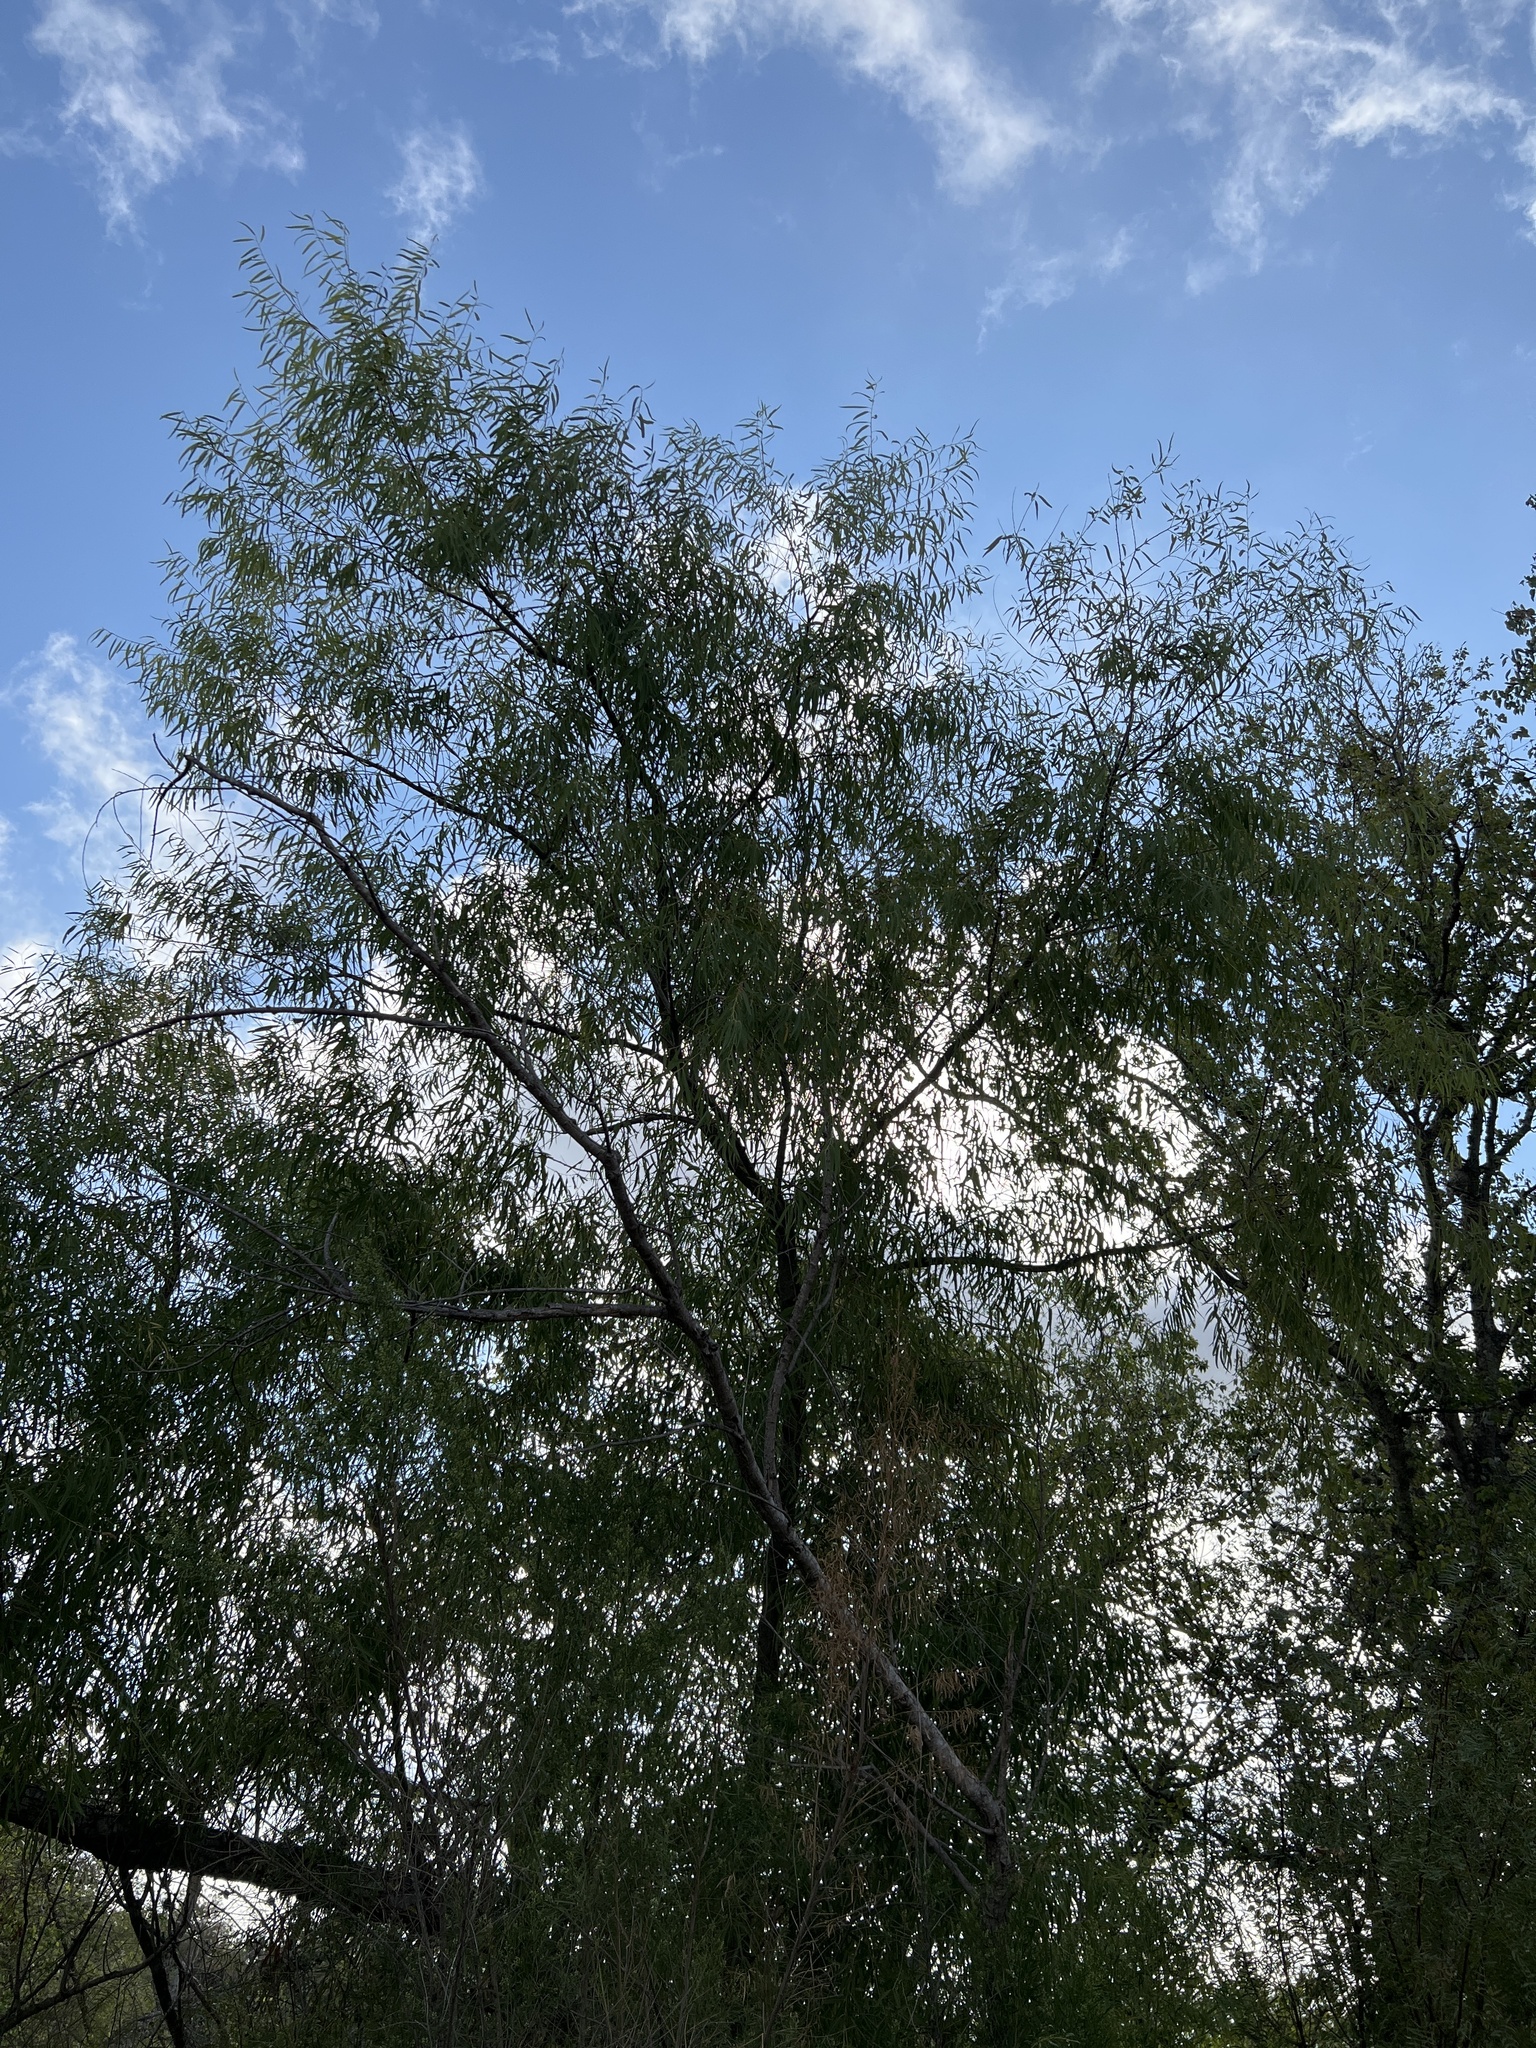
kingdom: Plantae
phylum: Tracheophyta
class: Magnoliopsida
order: Malpighiales
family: Salicaceae
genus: Salix
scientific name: Salix nigra
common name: Black willow
